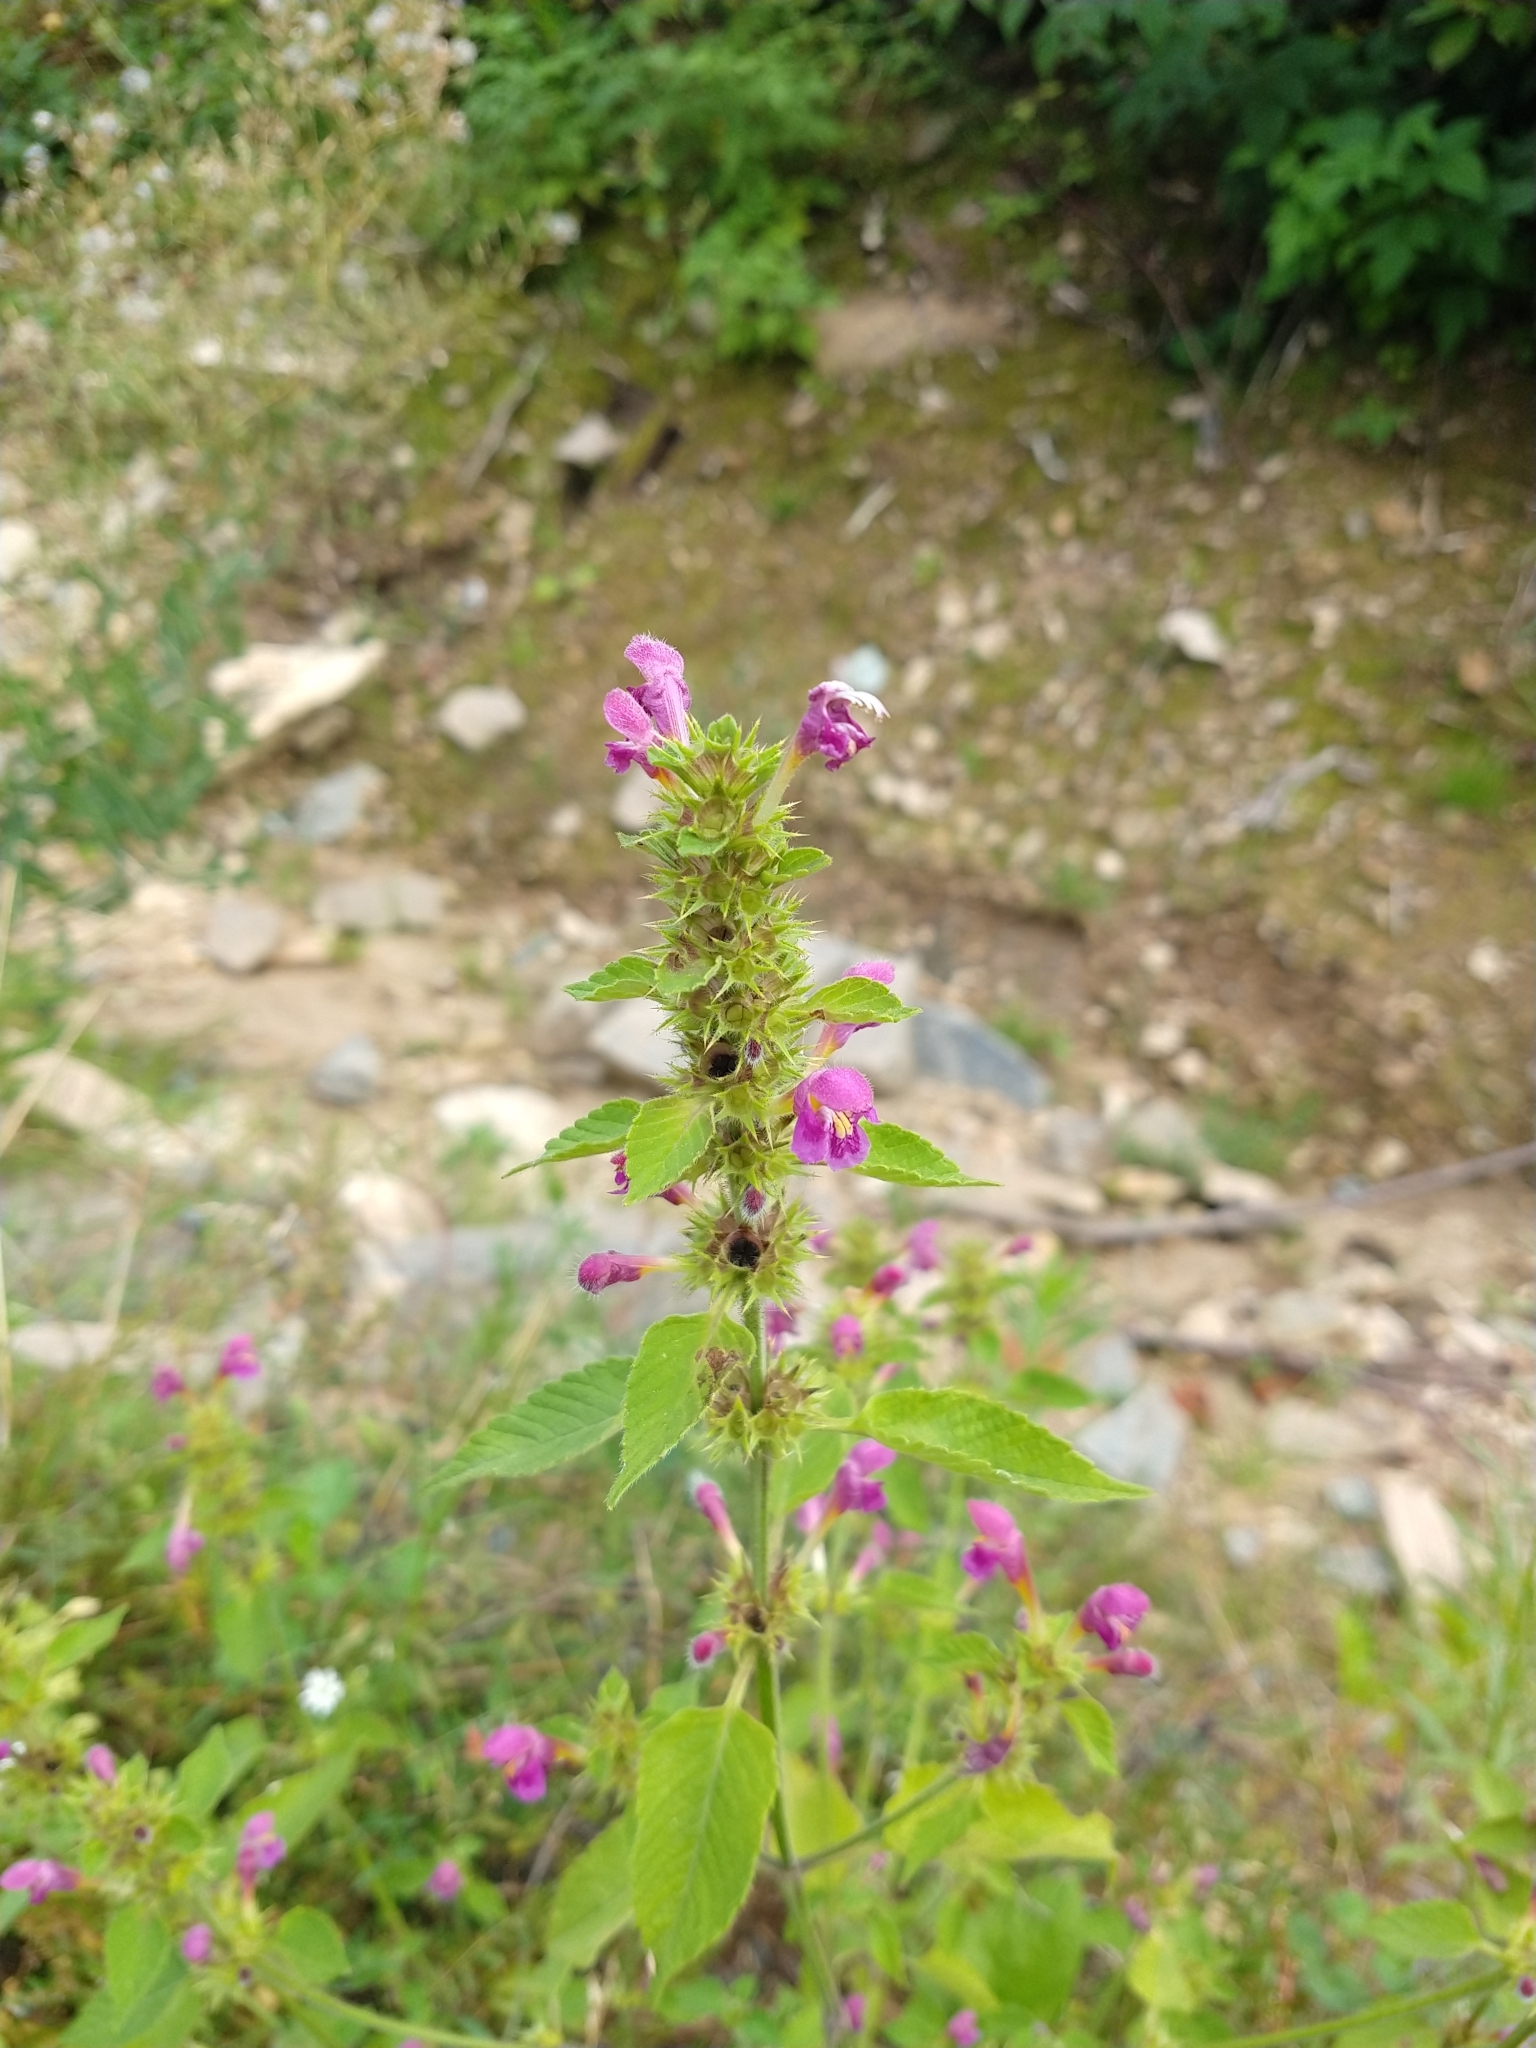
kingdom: Plantae
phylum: Tracheophyta
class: Magnoliopsida
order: Lamiales
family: Lamiaceae
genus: Galeopsis
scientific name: Galeopsis pubescens
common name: Downy hemp-nettle
